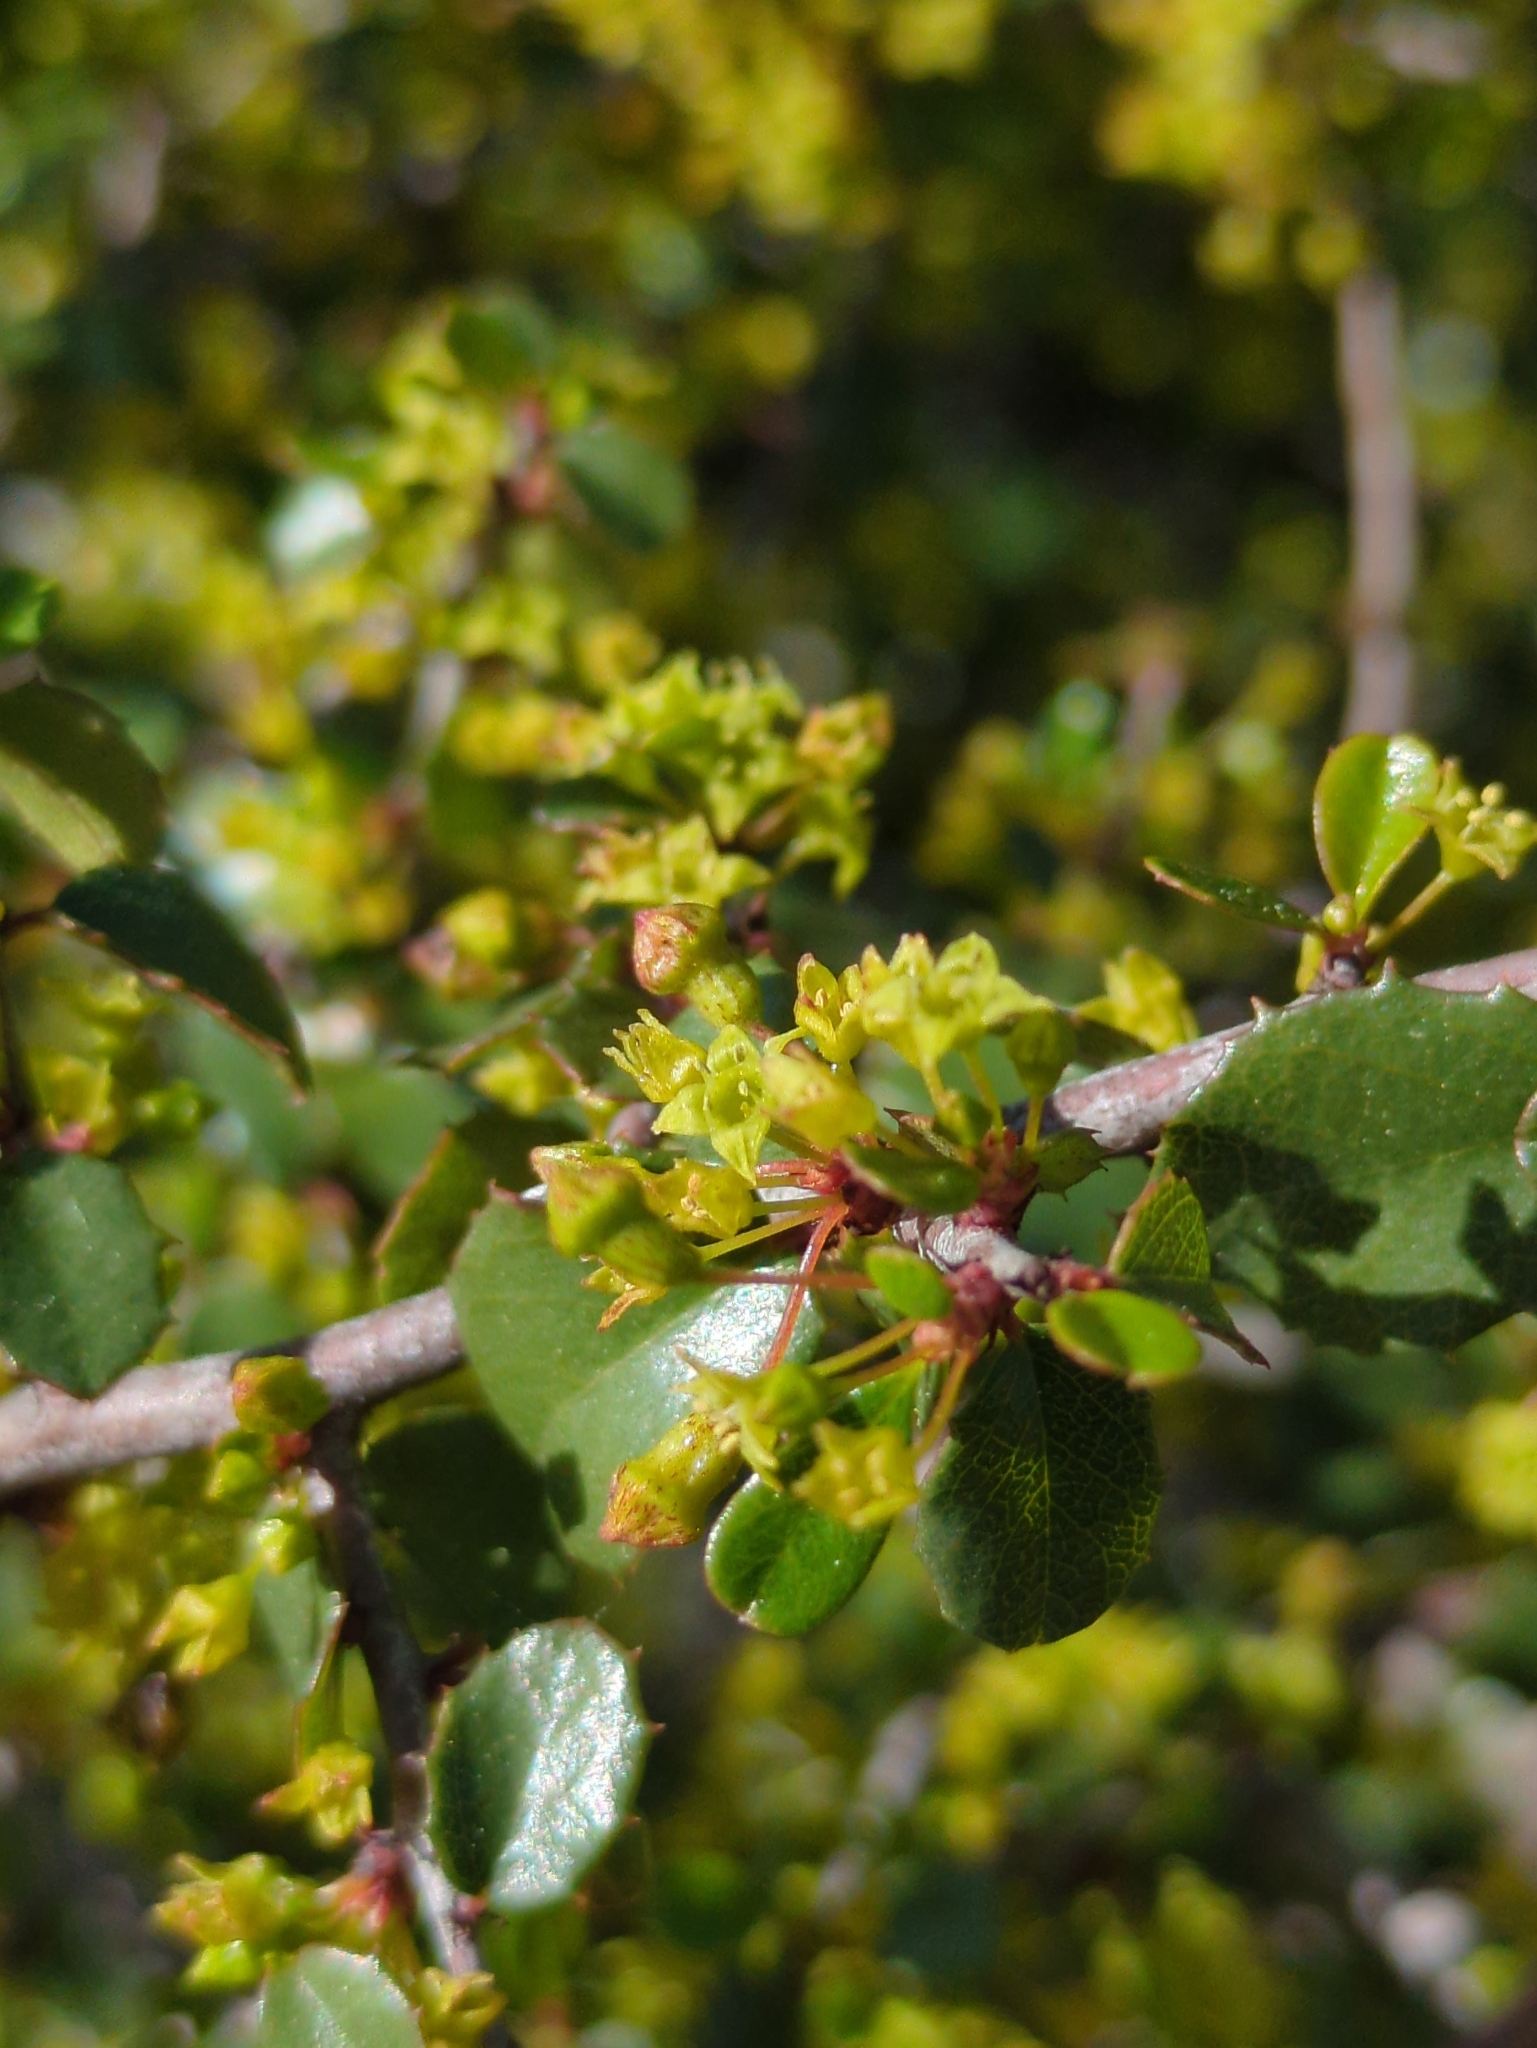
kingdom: Plantae
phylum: Tracheophyta
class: Magnoliopsida
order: Rosales
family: Rhamnaceae
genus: Endotropis
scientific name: Endotropis crocea
